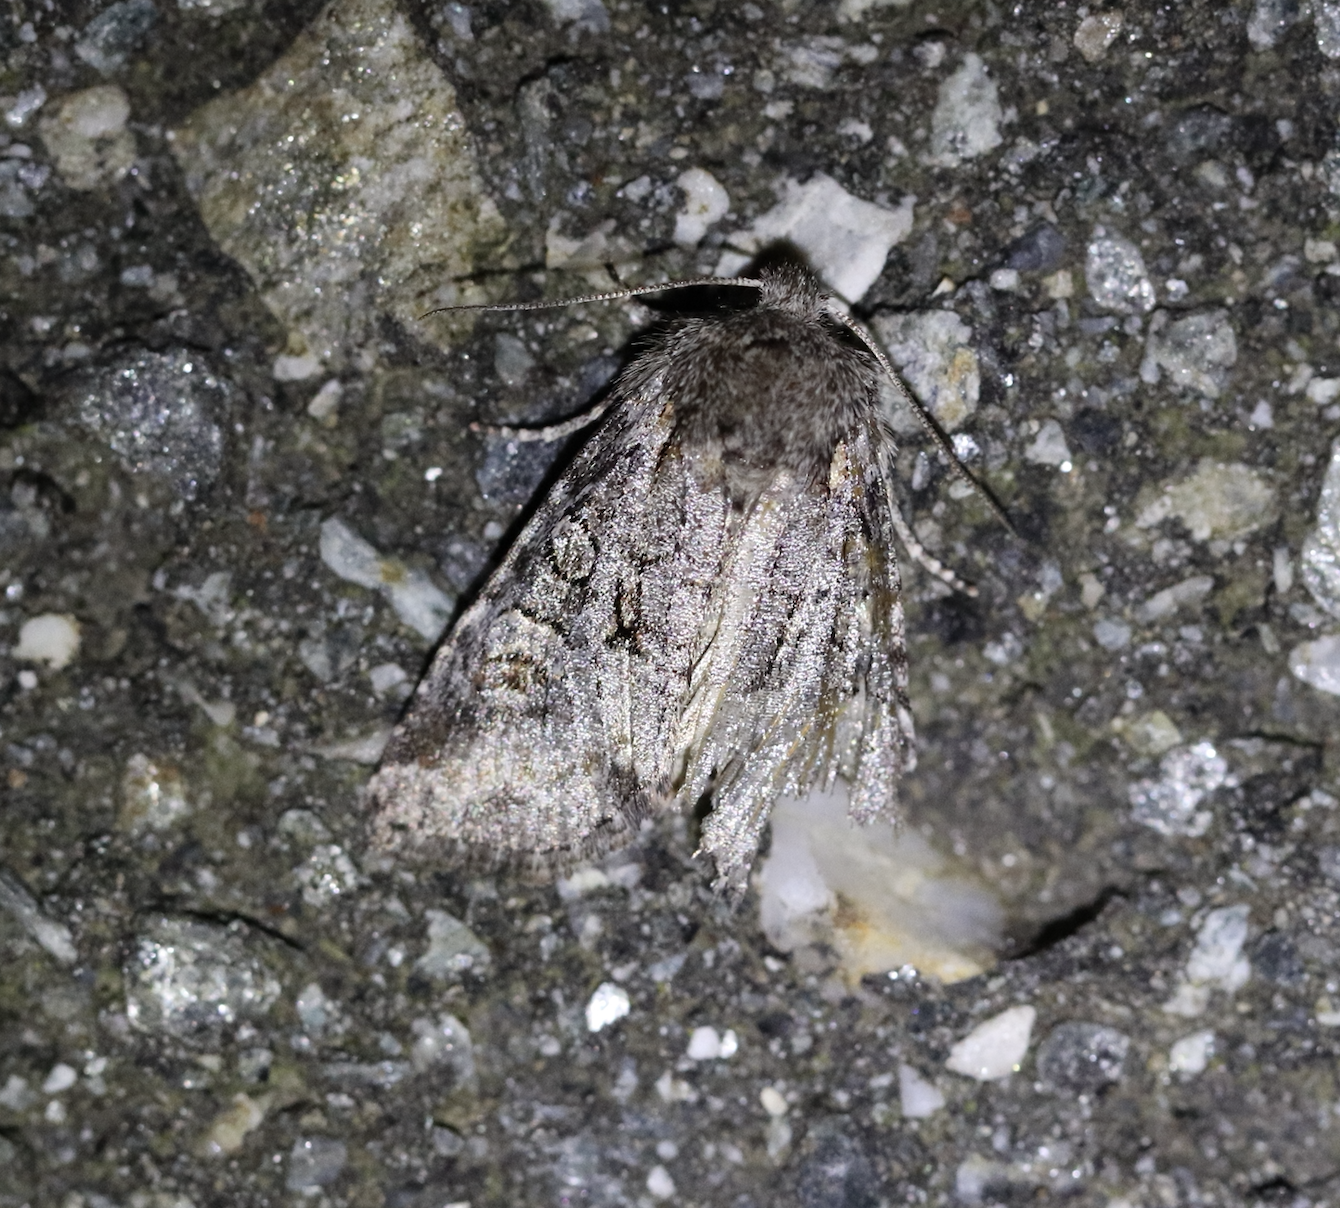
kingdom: Animalia
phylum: Arthropoda
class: Insecta
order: Lepidoptera
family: Noctuidae
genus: Brachylomia
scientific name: Brachylomia viminalis
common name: Minor shoulder-knot
